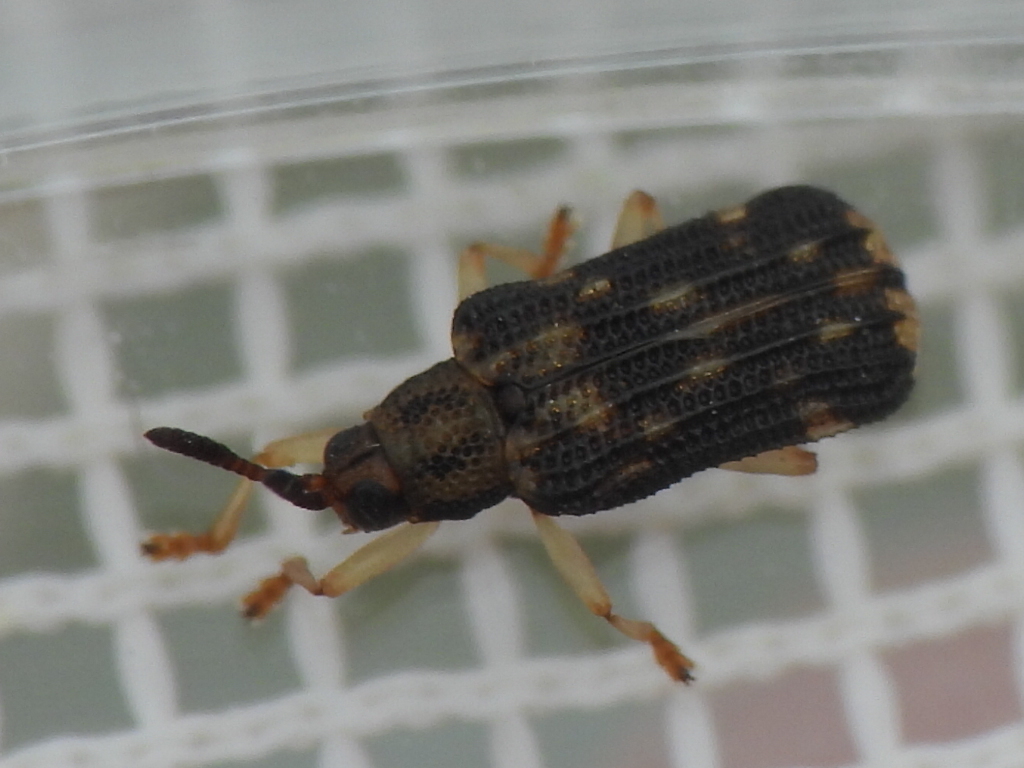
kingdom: Animalia
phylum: Arthropoda
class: Insecta
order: Coleoptera
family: Chrysomelidae
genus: Sumitrosis
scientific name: Sumitrosis inaequalis
